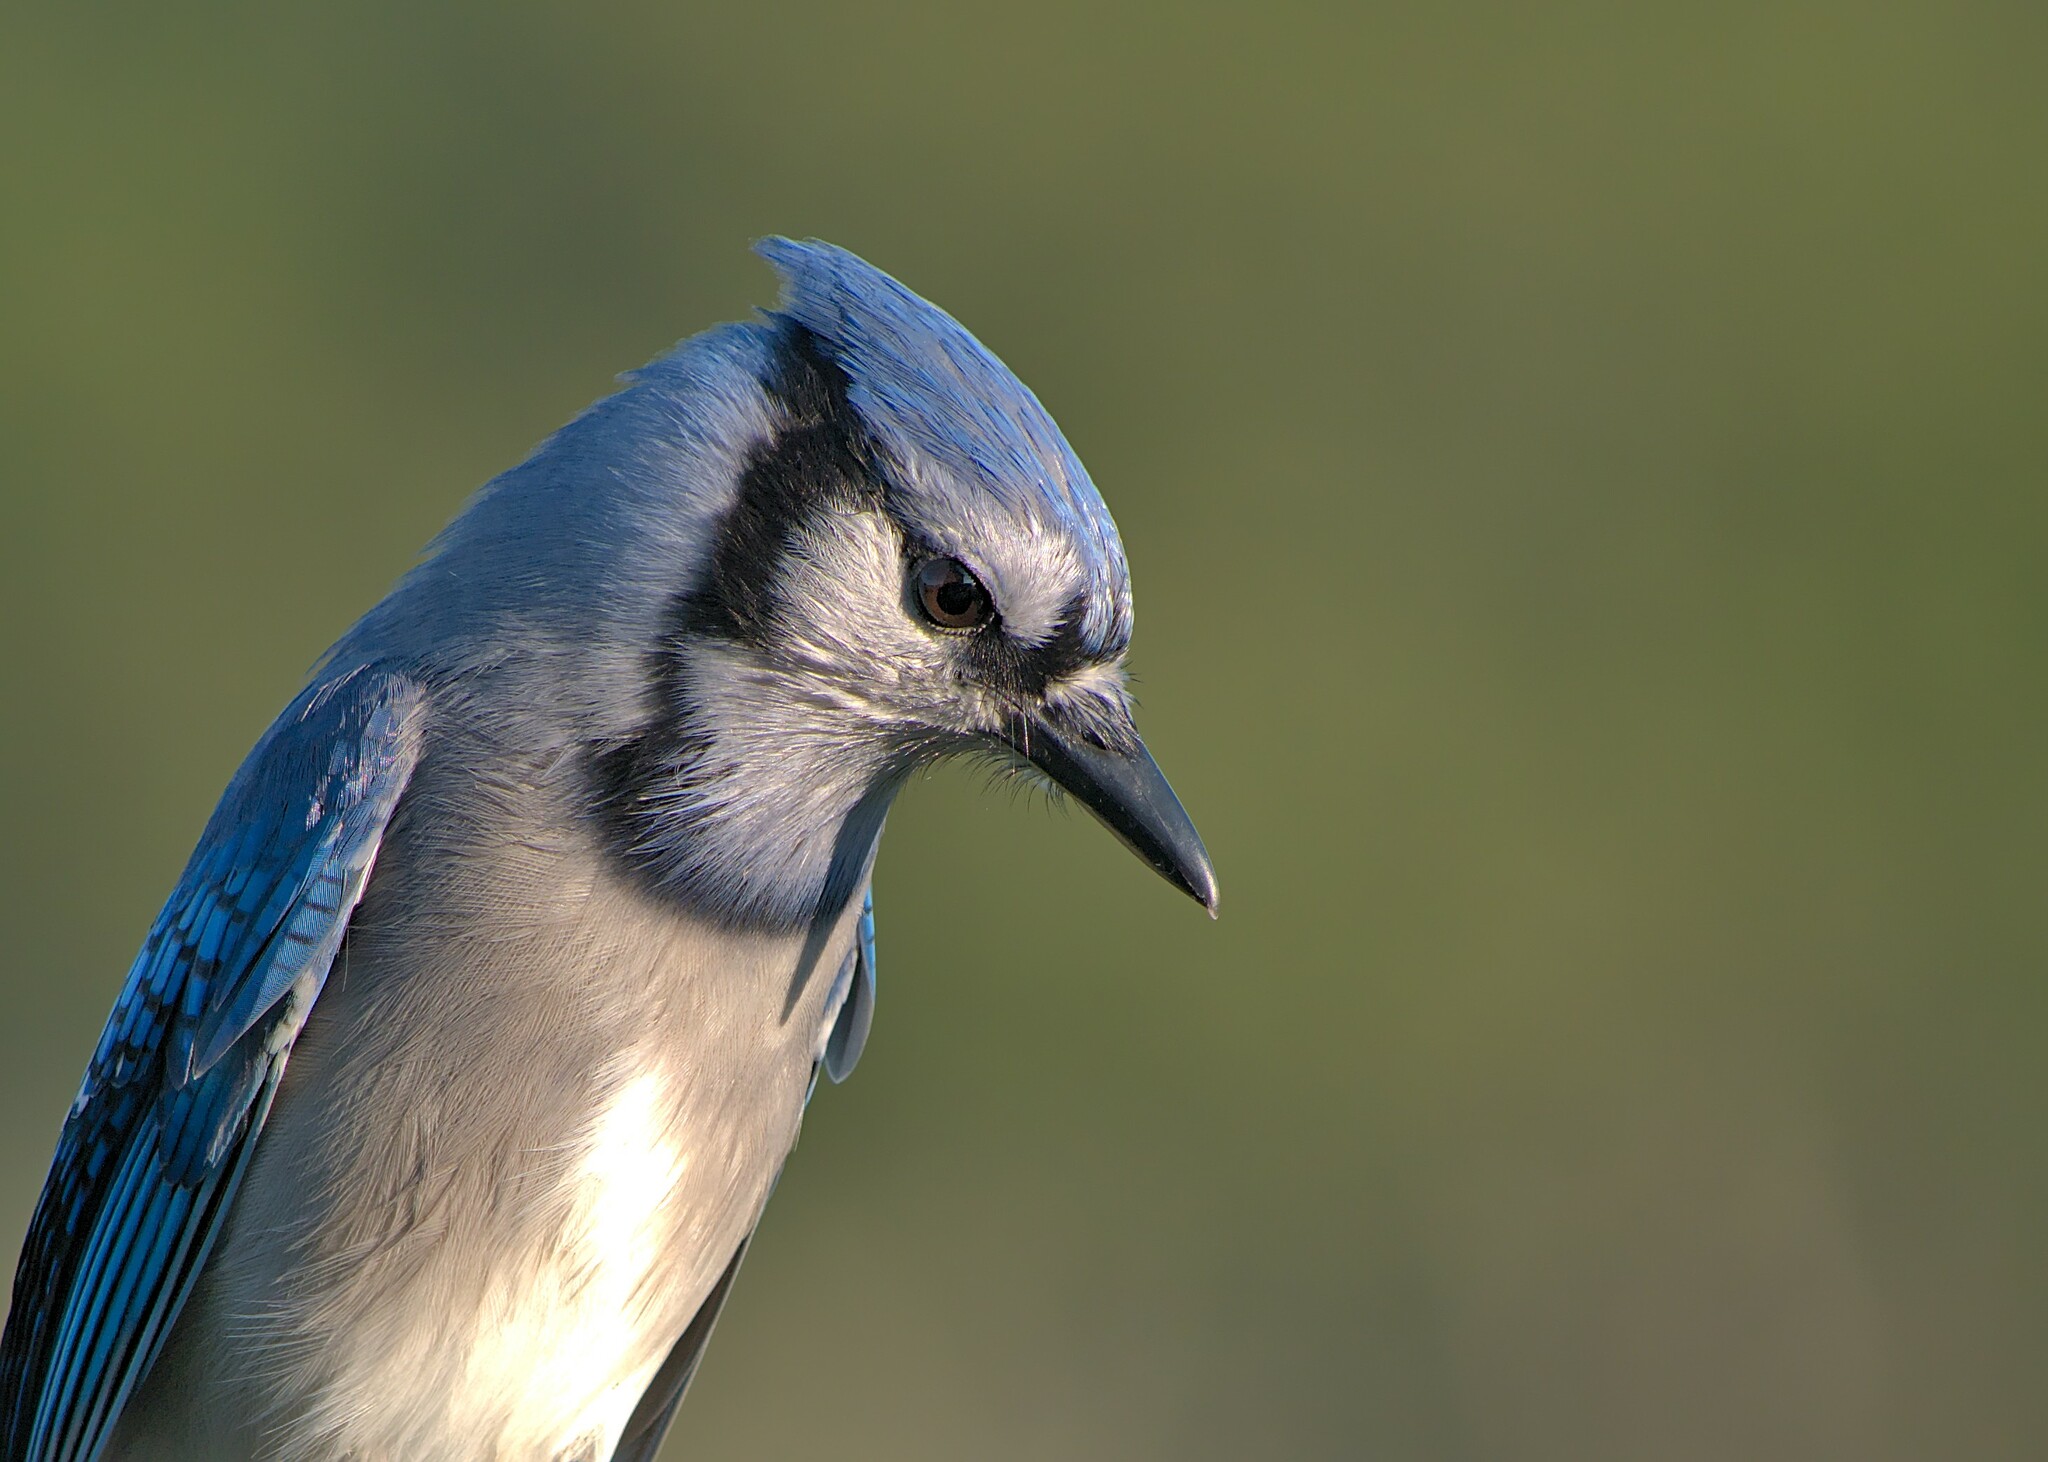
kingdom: Animalia
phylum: Chordata
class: Aves
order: Passeriformes
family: Corvidae
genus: Cyanocitta
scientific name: Cyanocitta cristata
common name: Blue jay
